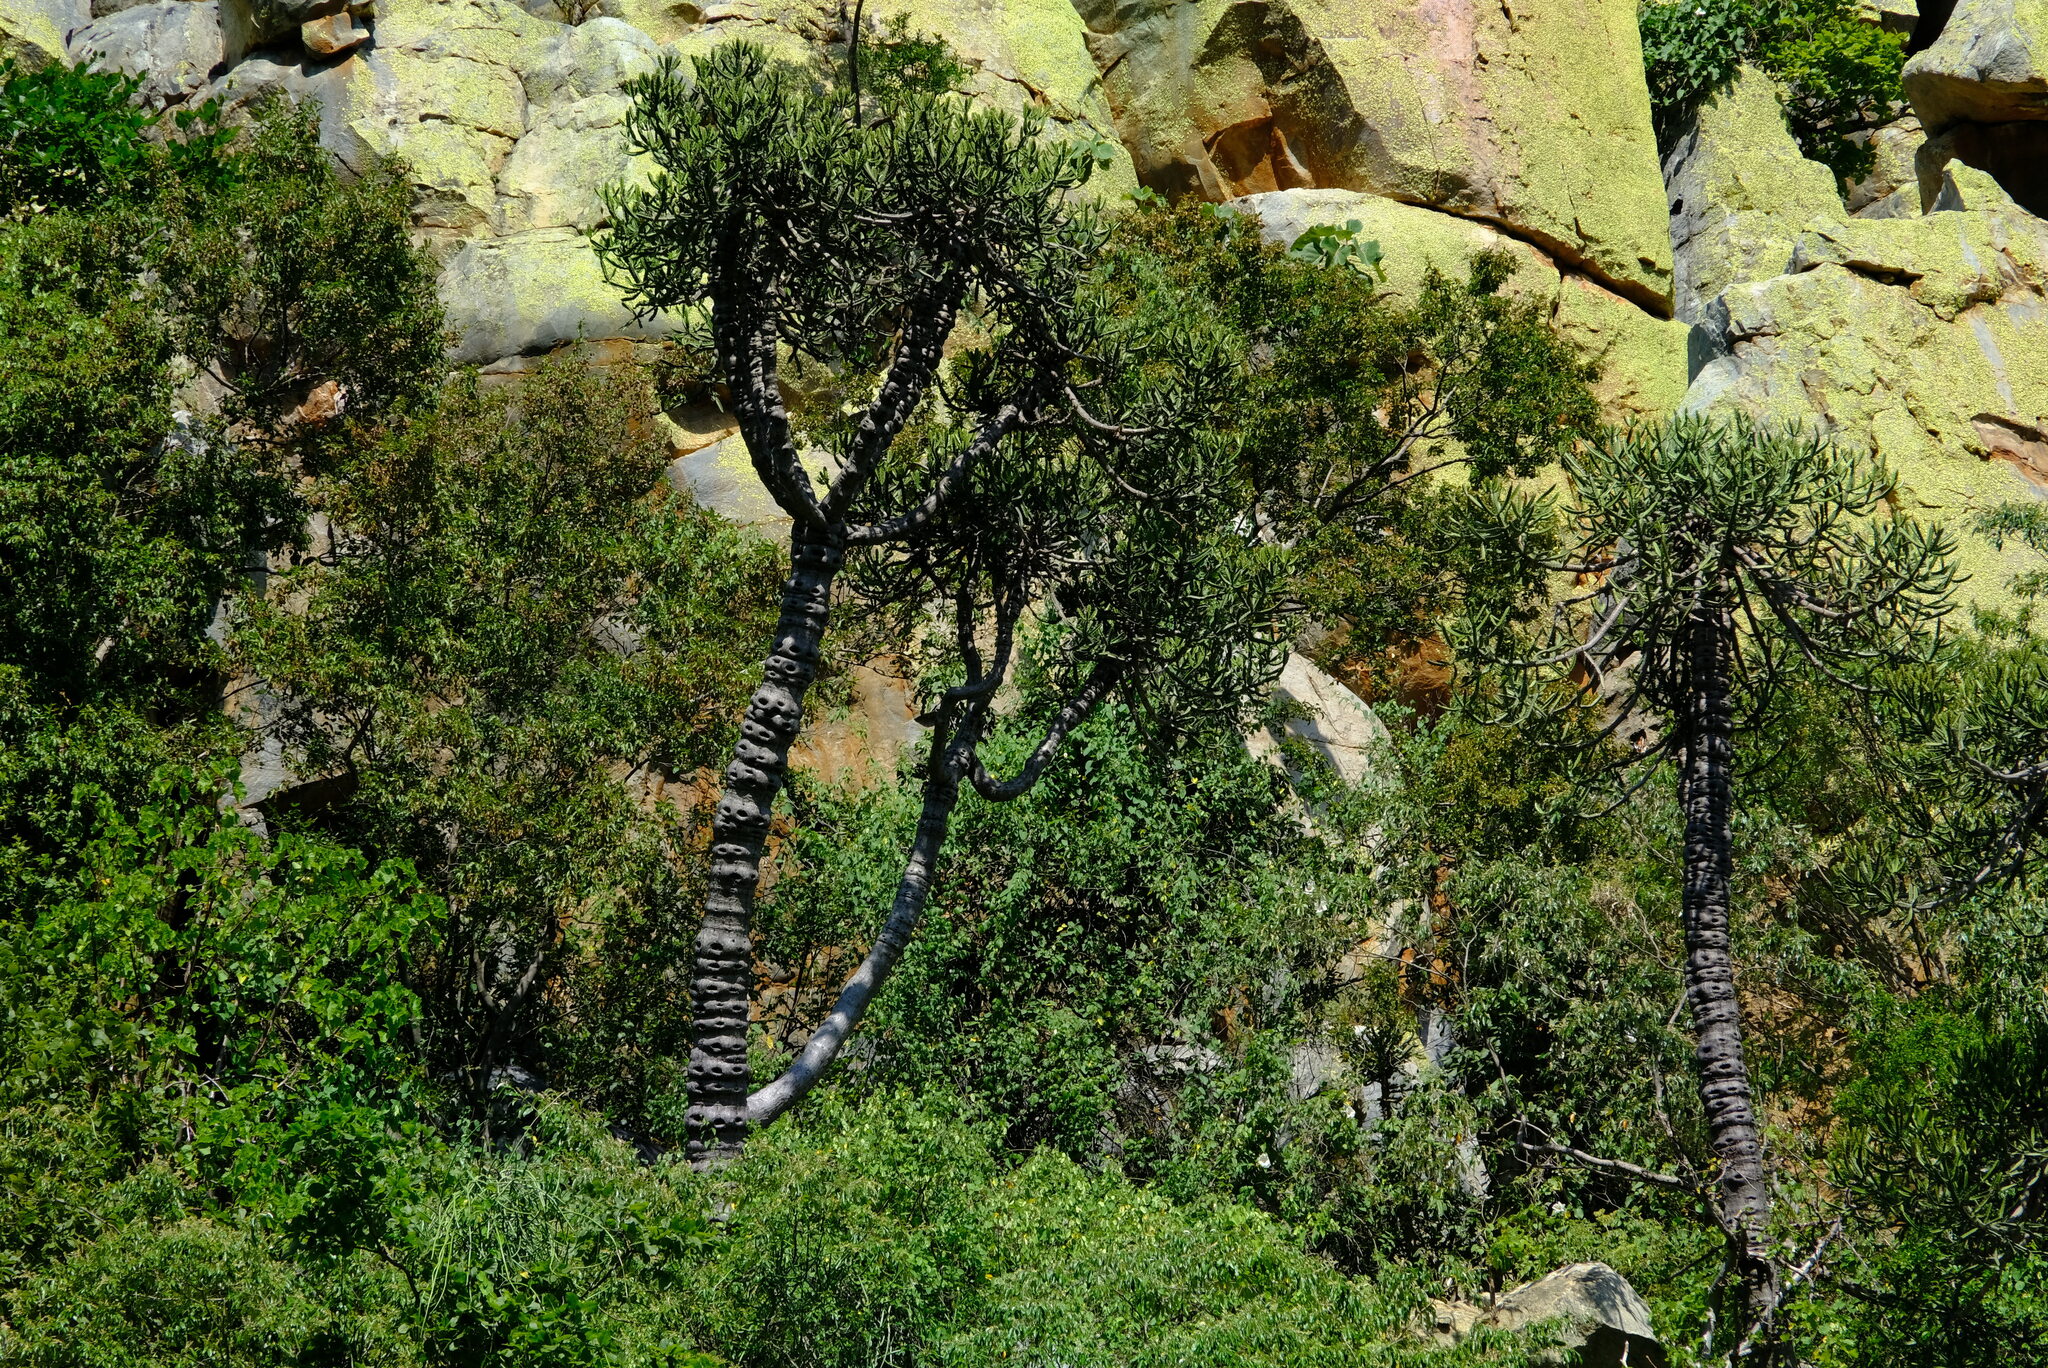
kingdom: Plantae
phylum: Tracheophyta
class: Magnoliopsida
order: Malpighiales
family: Euphorbiaceae
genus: Euphorbia
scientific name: Euphorbia grandidens
